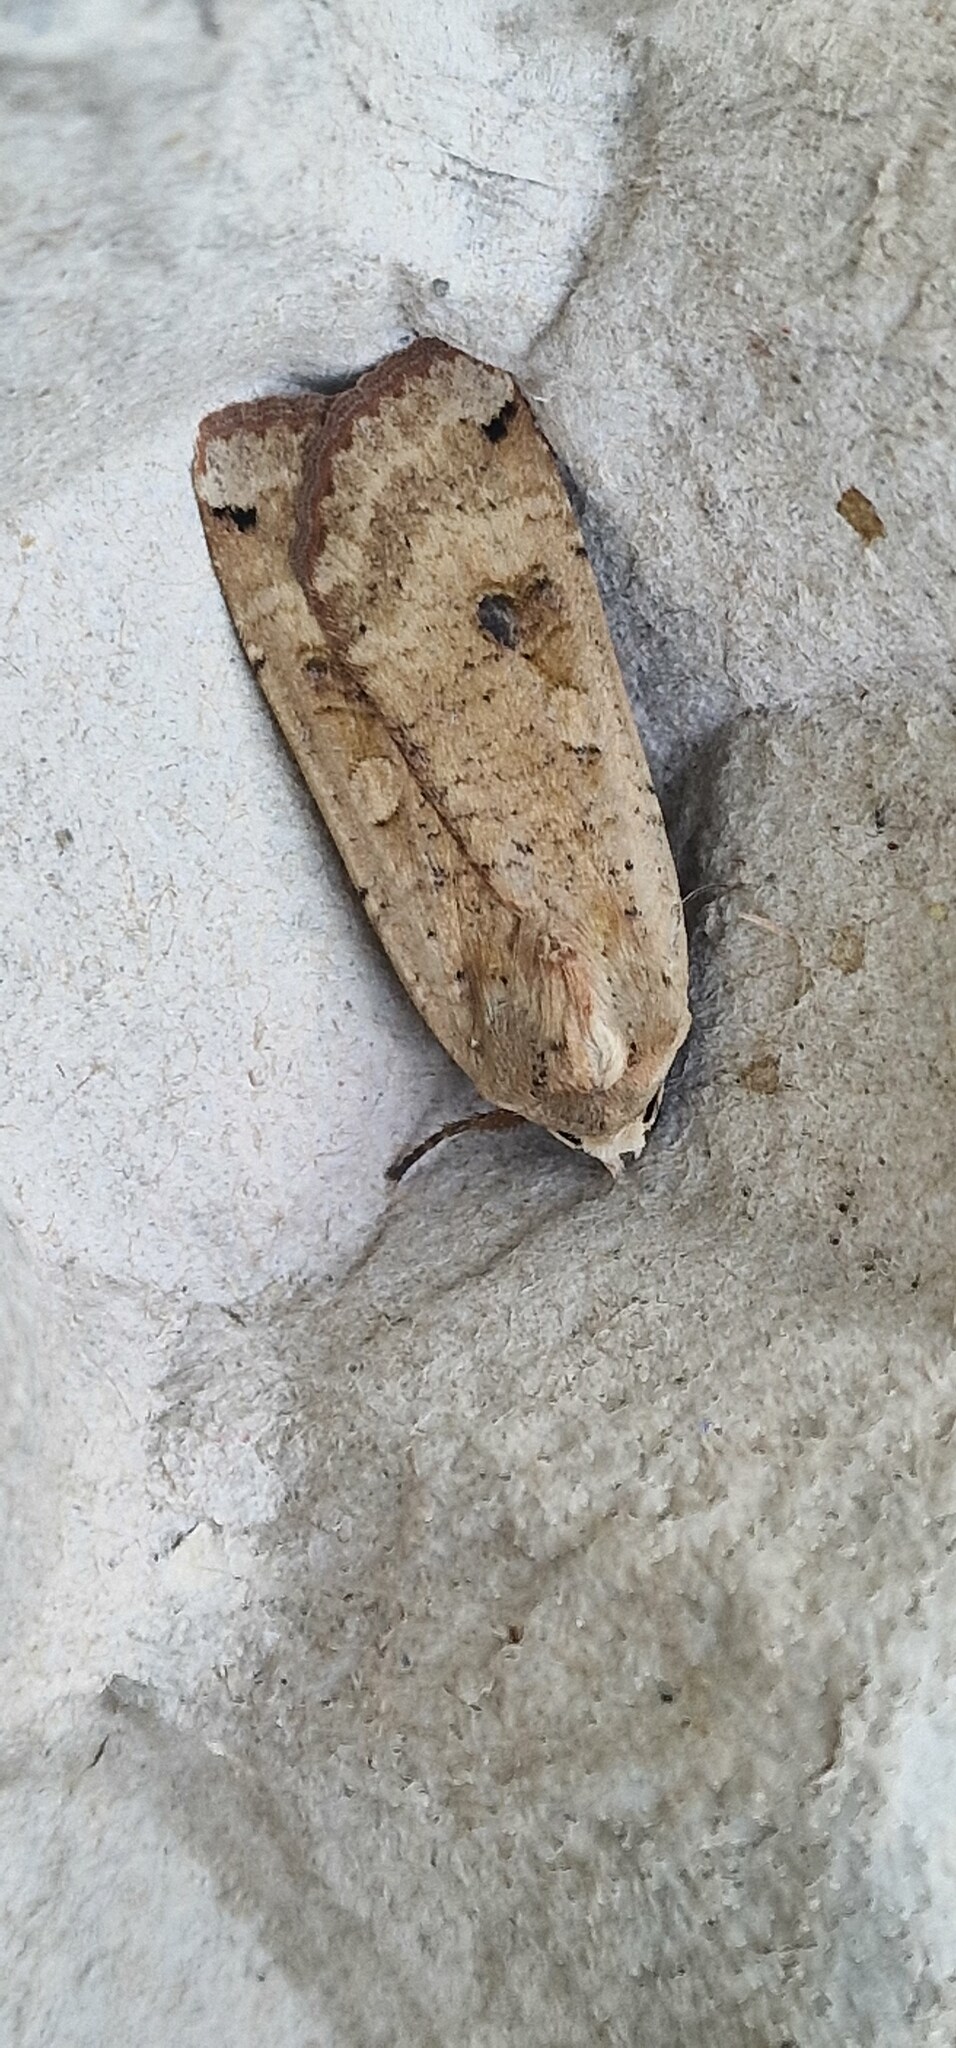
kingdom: Animalia
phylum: Arthropoda
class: Insecta
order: Lepidoptera
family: Noctuidae
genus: Noctua
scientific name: Noctua pronuba
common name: Large yellow underwing
